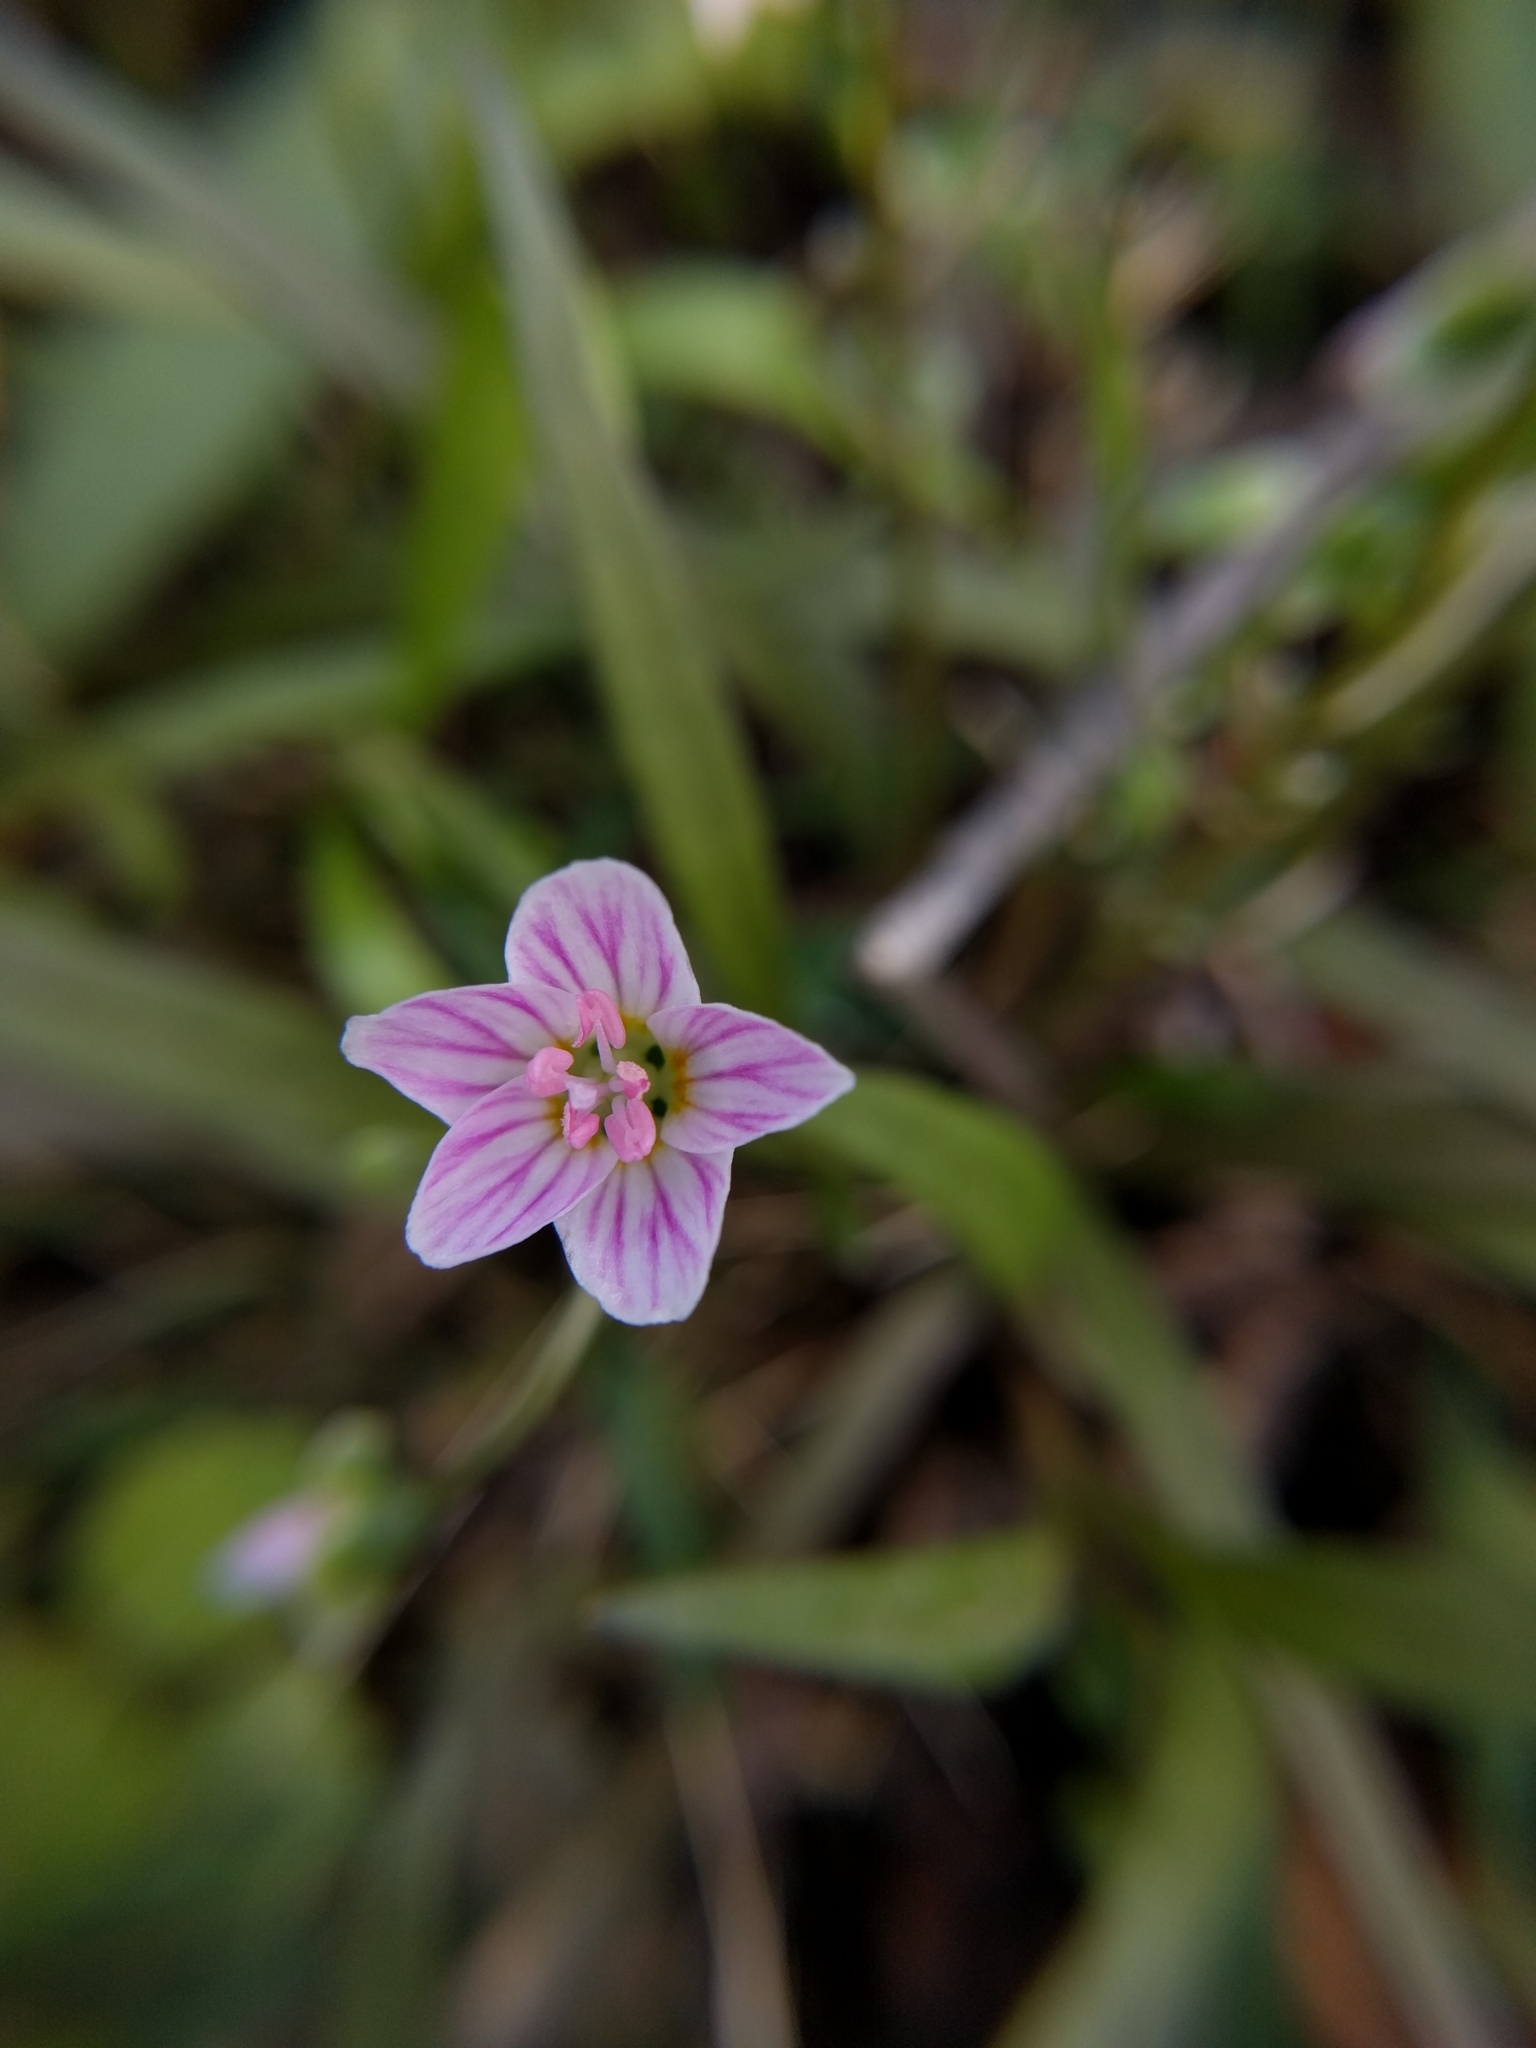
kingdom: Plantae
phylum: Tracheophyta
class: Magnoliopsida
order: Caryophyllales
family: Montiaceae
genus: Claytonia
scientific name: Claytonia virginica
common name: Virginia springbeauty
